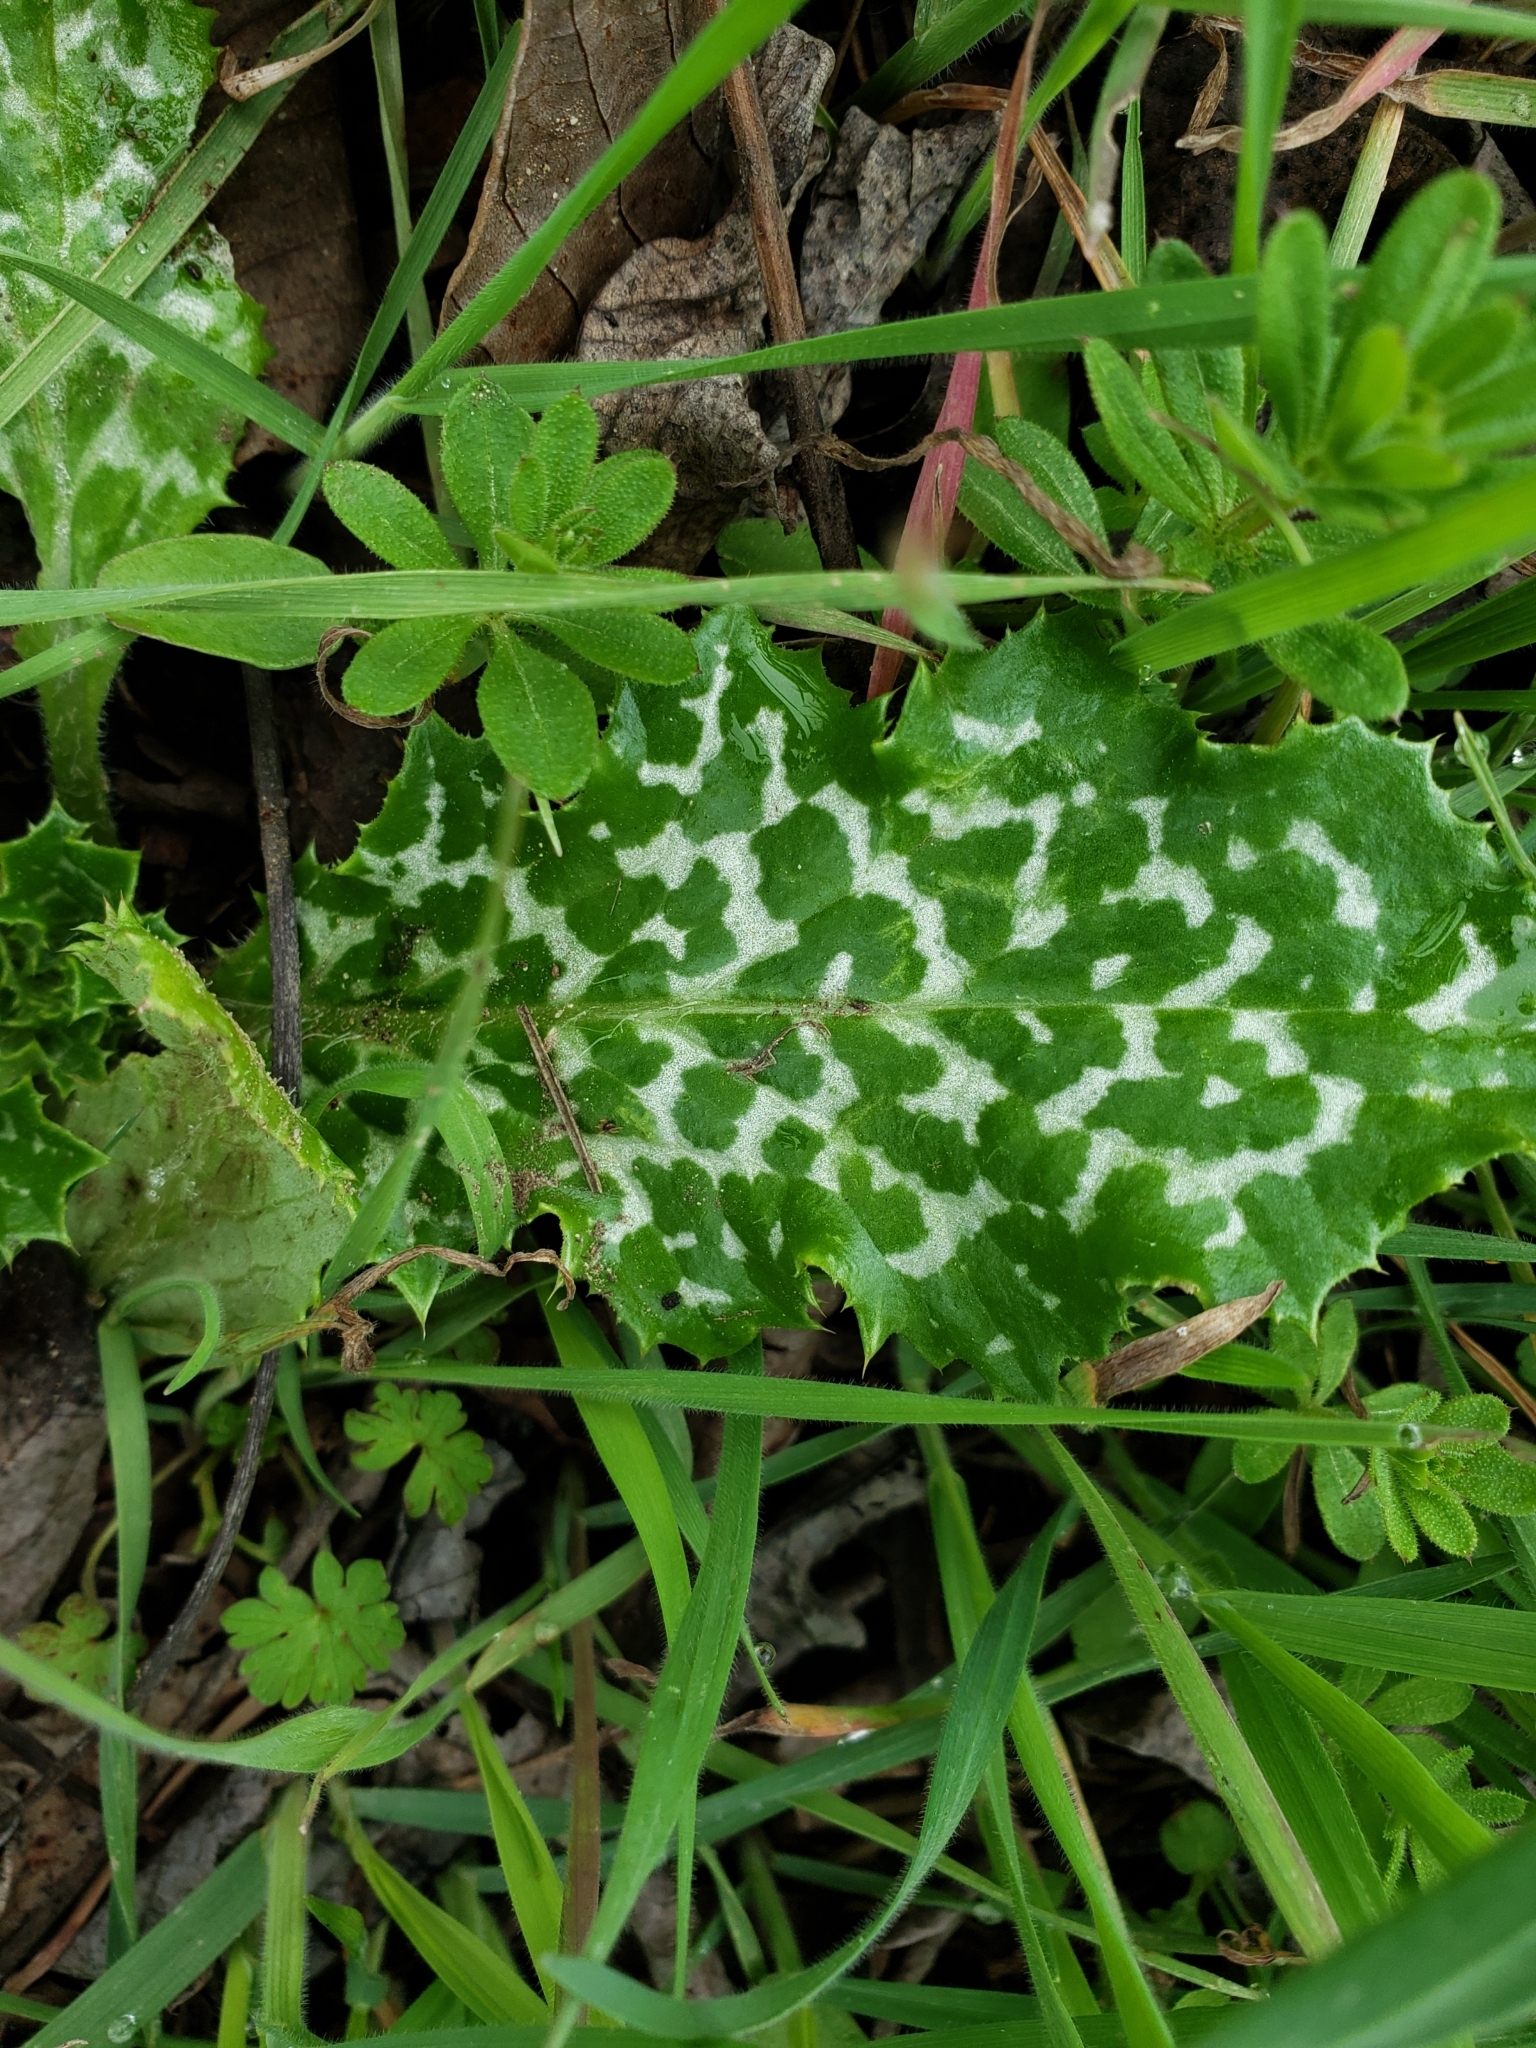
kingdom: Plantae
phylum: Tracheophyta
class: Magnoliopsida
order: Asterales
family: Asteraceae
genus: Silybum
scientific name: Silybum marianum
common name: Milk thistle
